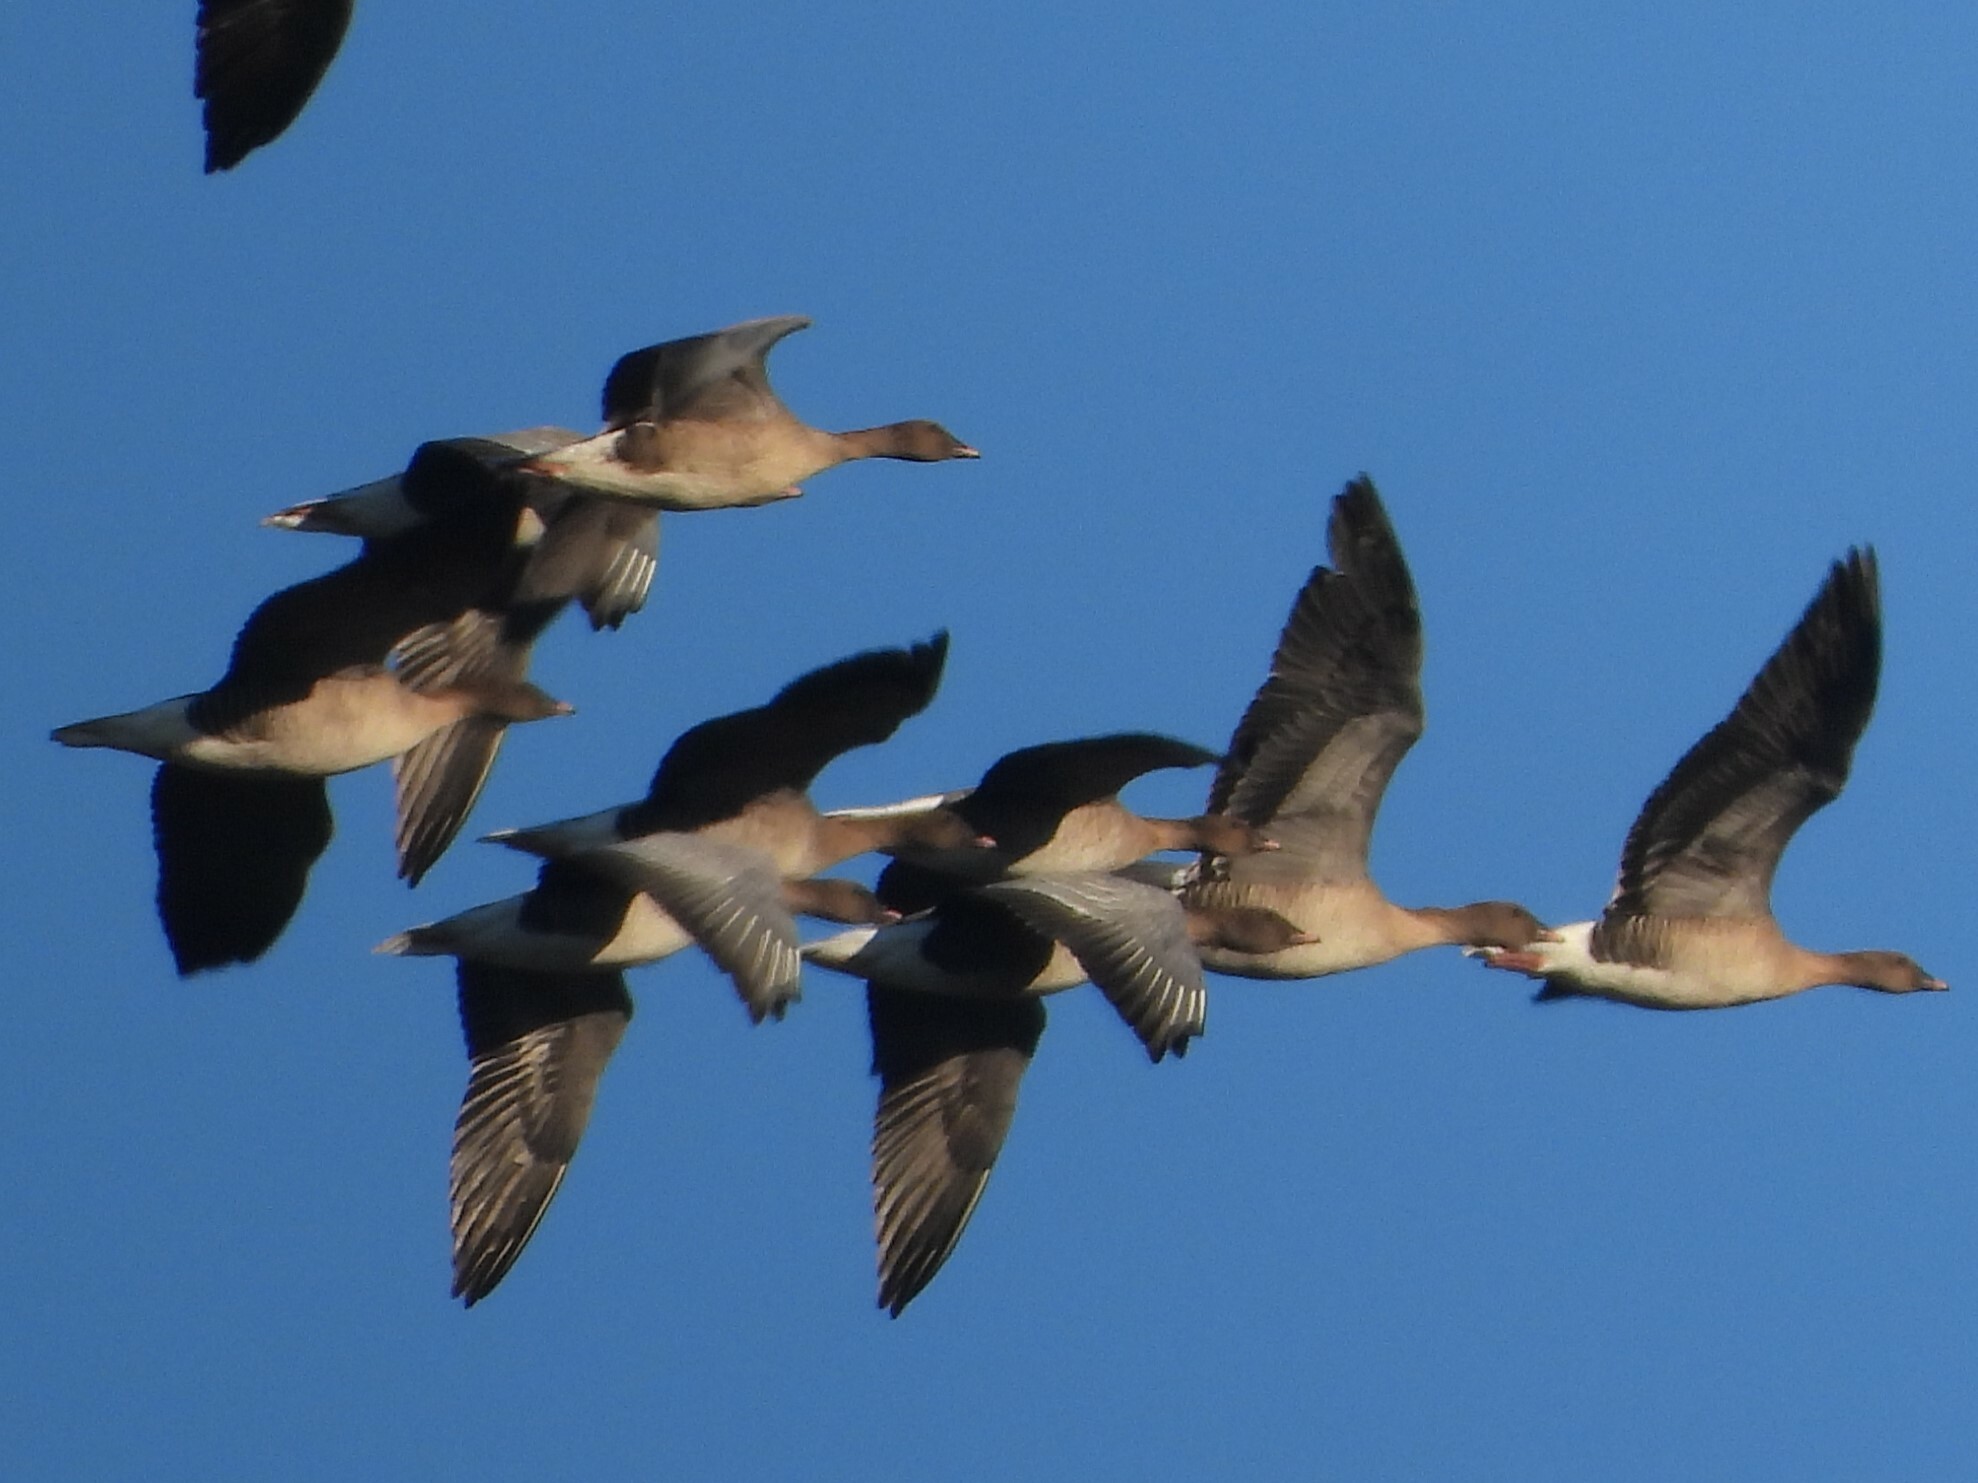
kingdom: Animalia
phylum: Chordata
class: Aves
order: Anseriformes
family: Anatidae
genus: Anser
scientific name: Anser brachyrhynchus
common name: Pink-footed goose
